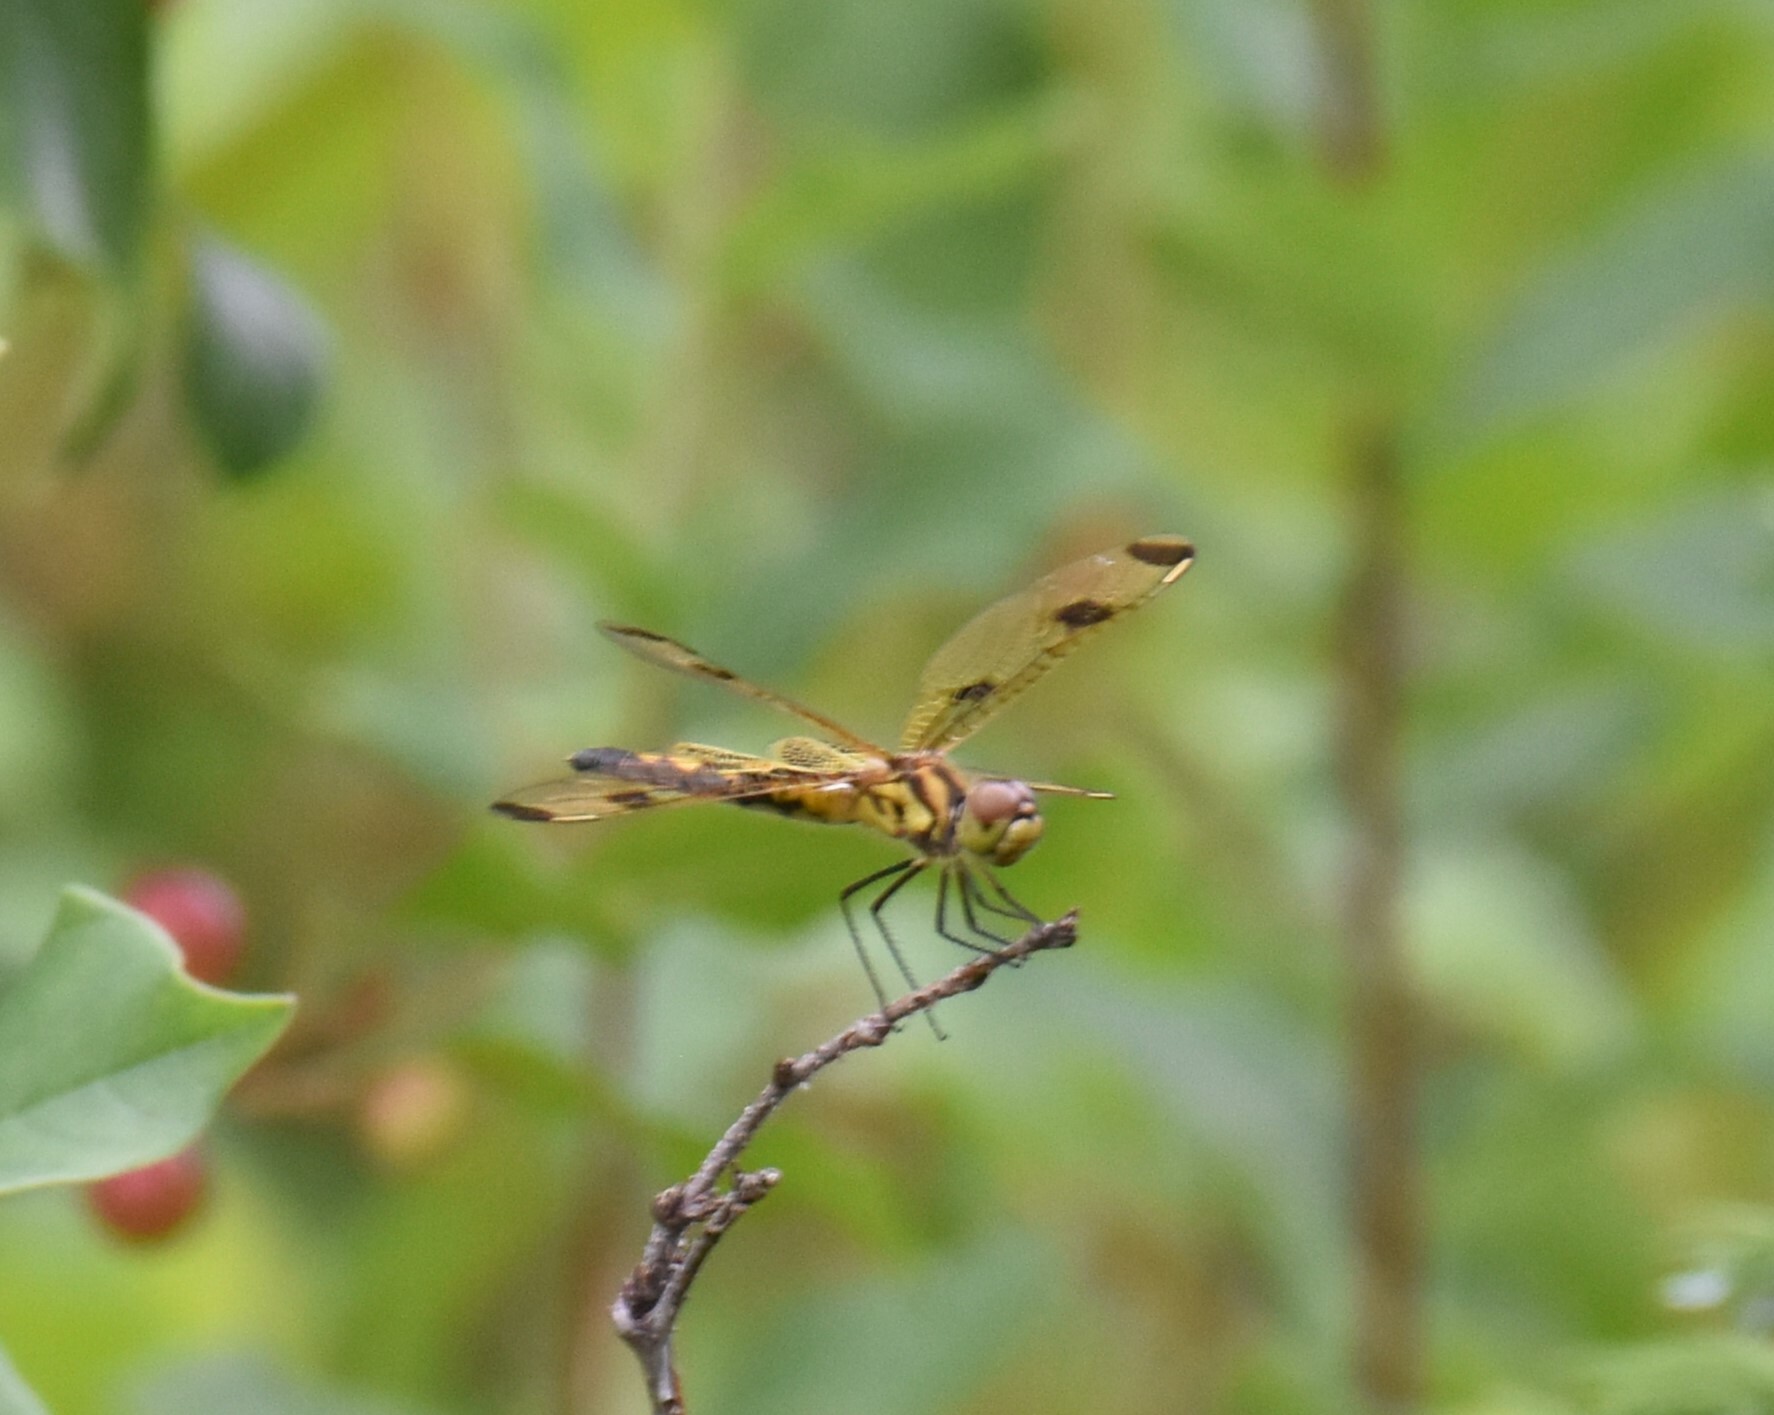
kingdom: Animalia
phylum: Arthropoda
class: Insecta
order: Odonata
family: Libellulidae
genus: Celithemis
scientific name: Celithemis elisa
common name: Calico pennant
